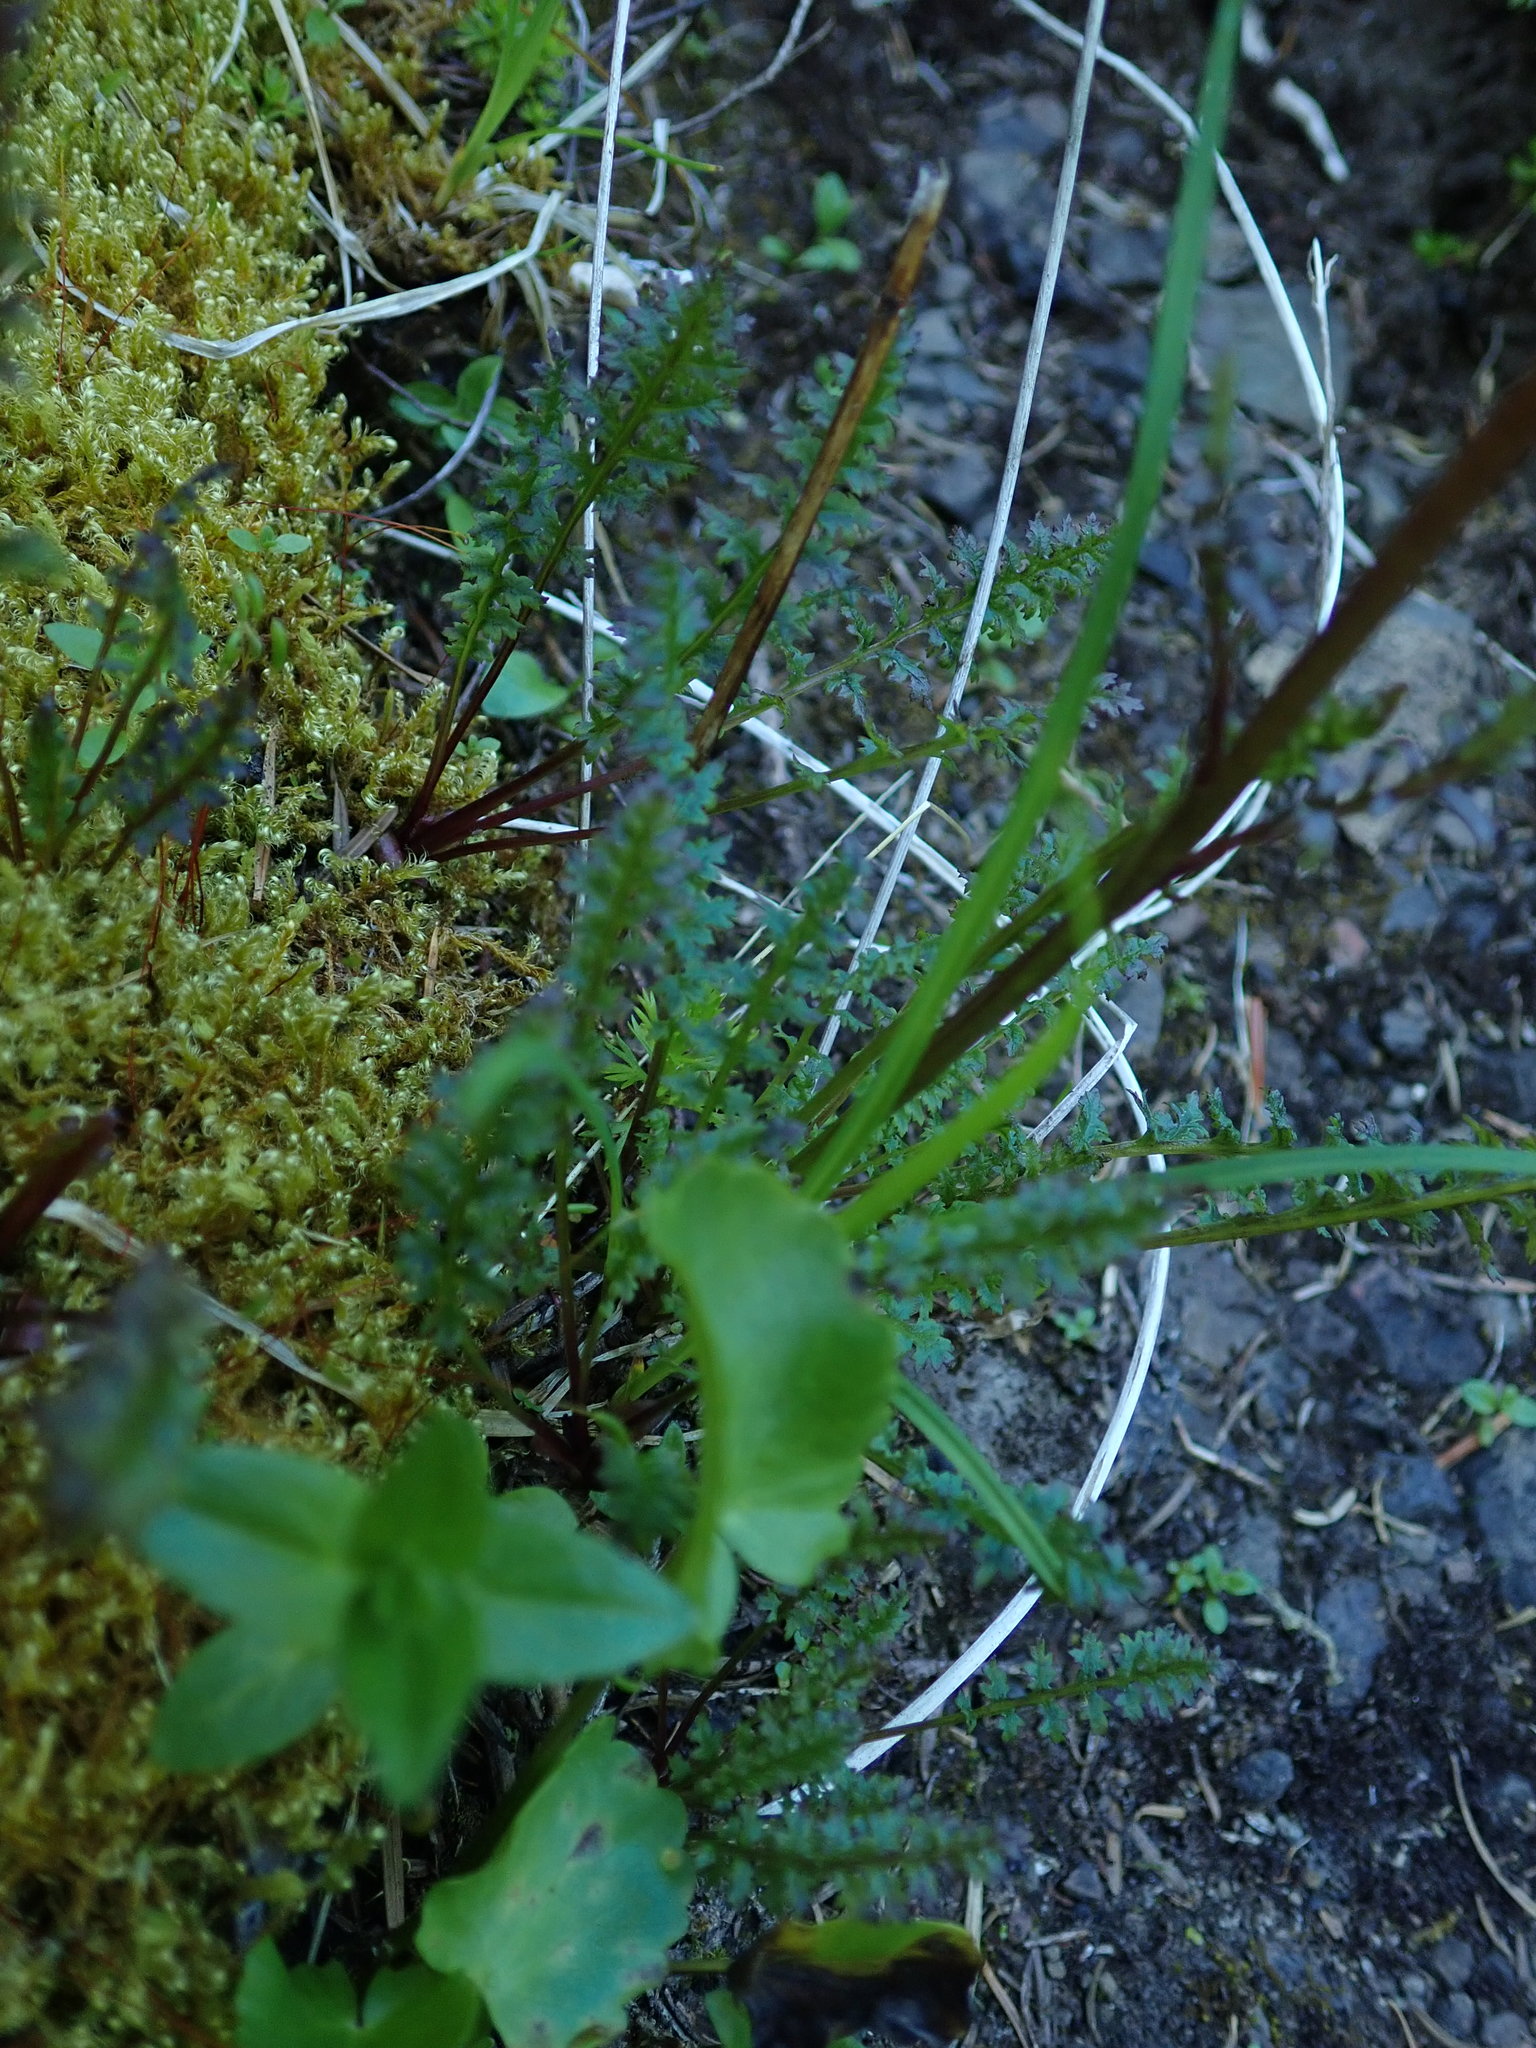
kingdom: Plantae
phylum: Tracheophyta
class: Magnoliopsida
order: Lamiales
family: Orobanchaceae
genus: Pedicularis
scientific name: Pedicularis ornithorhynchos
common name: Bird's-beak lousewort
